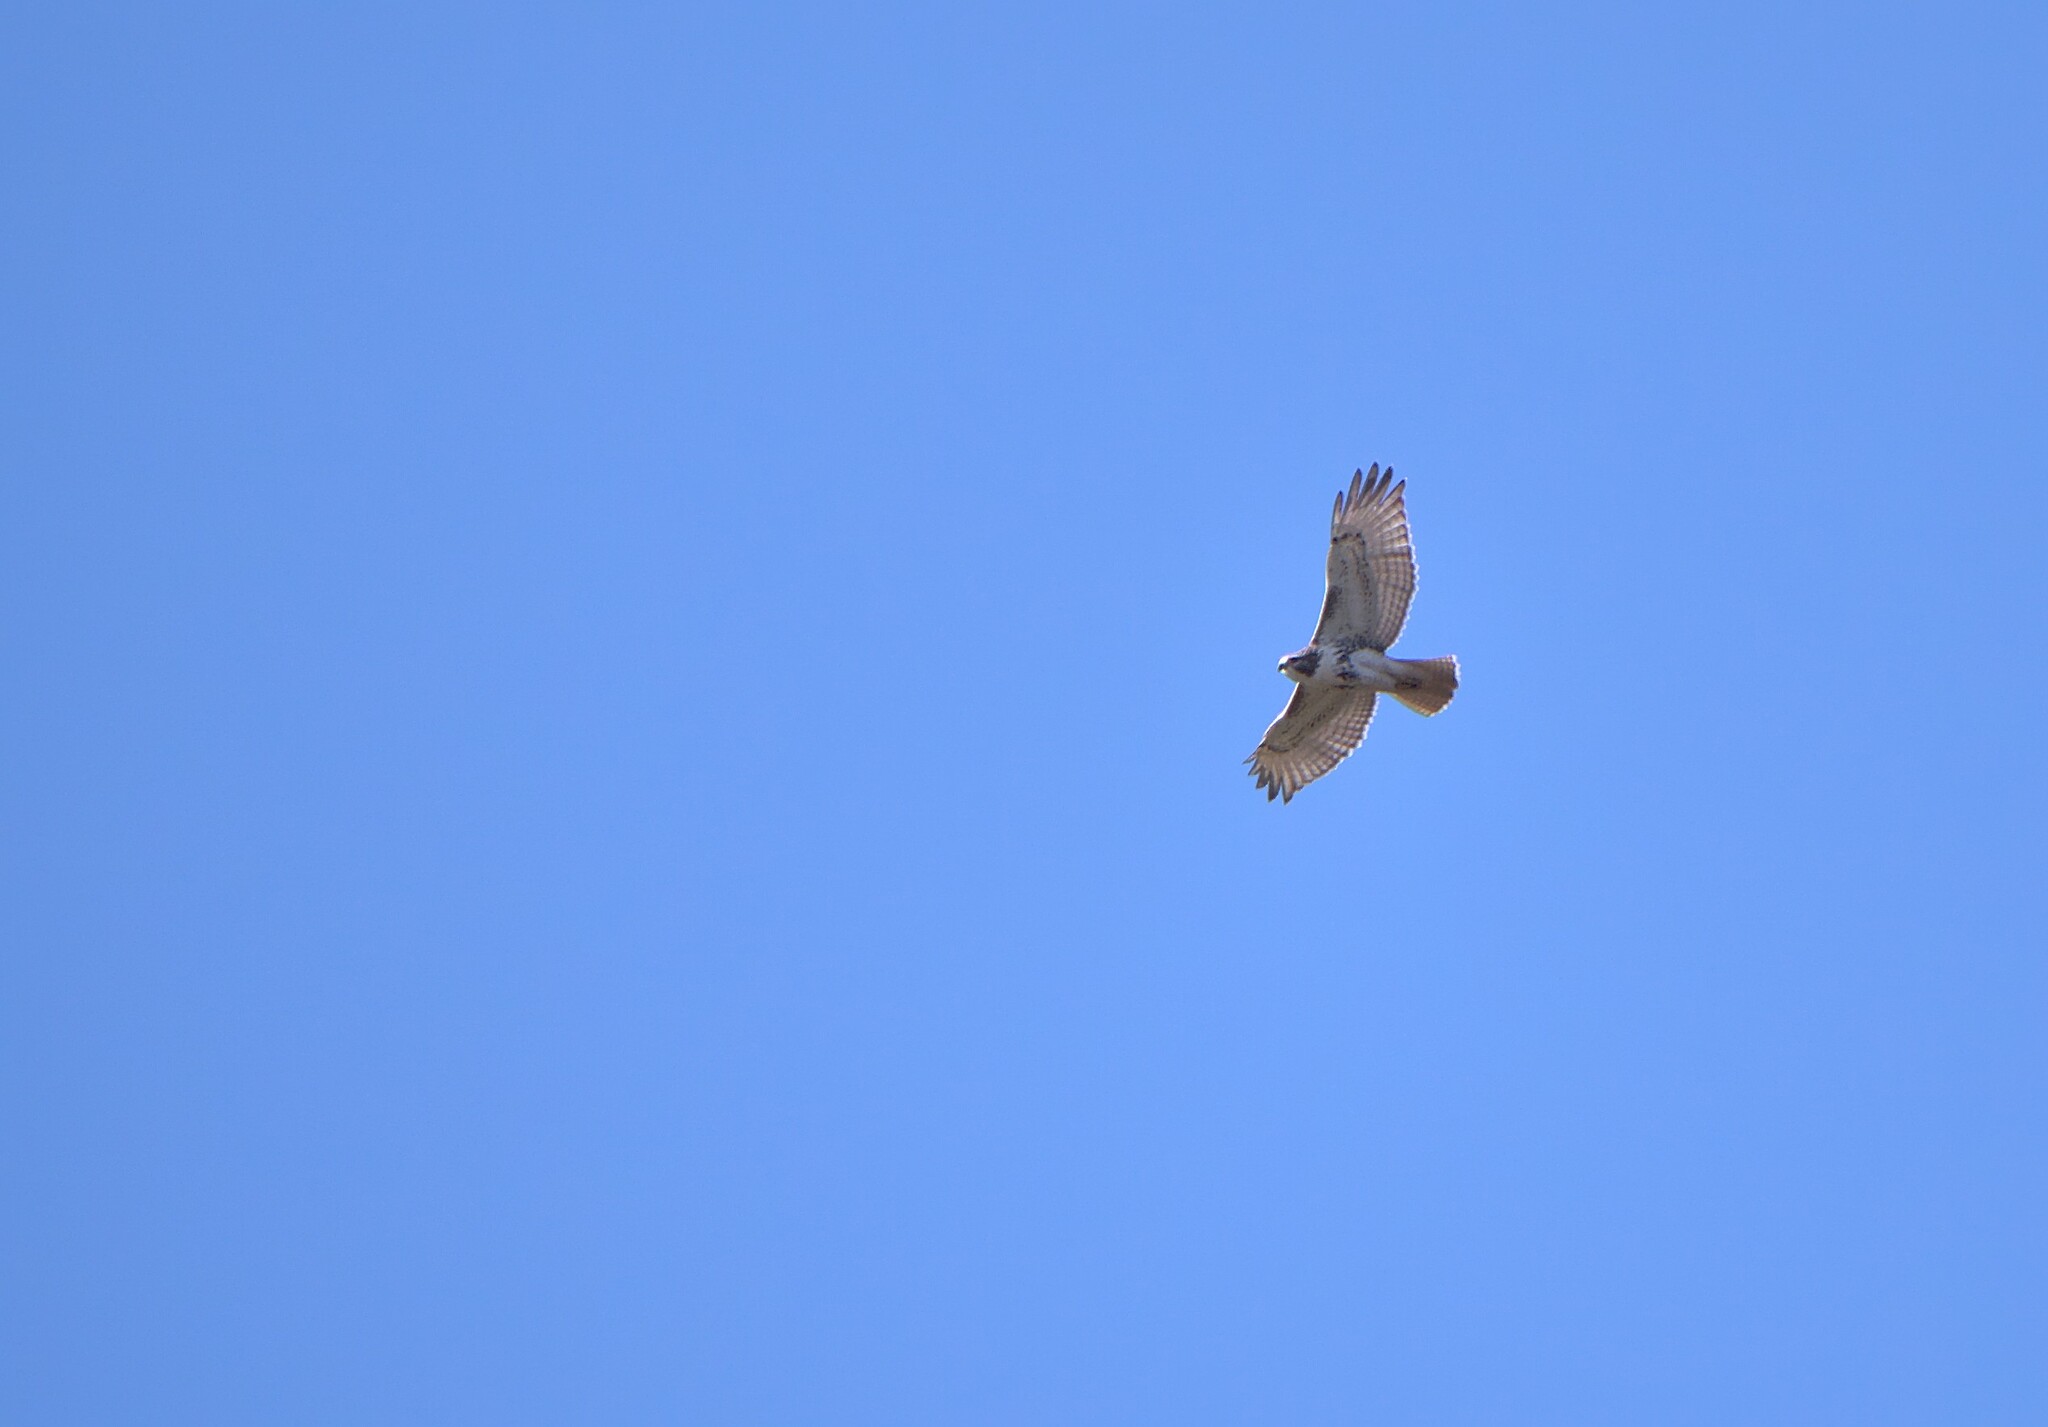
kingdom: Animalia
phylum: Chordata
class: Aves
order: Accipitriformes
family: Accipitridae
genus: Buteo
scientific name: Buteo jamaicensis
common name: Red-tailed hawk
